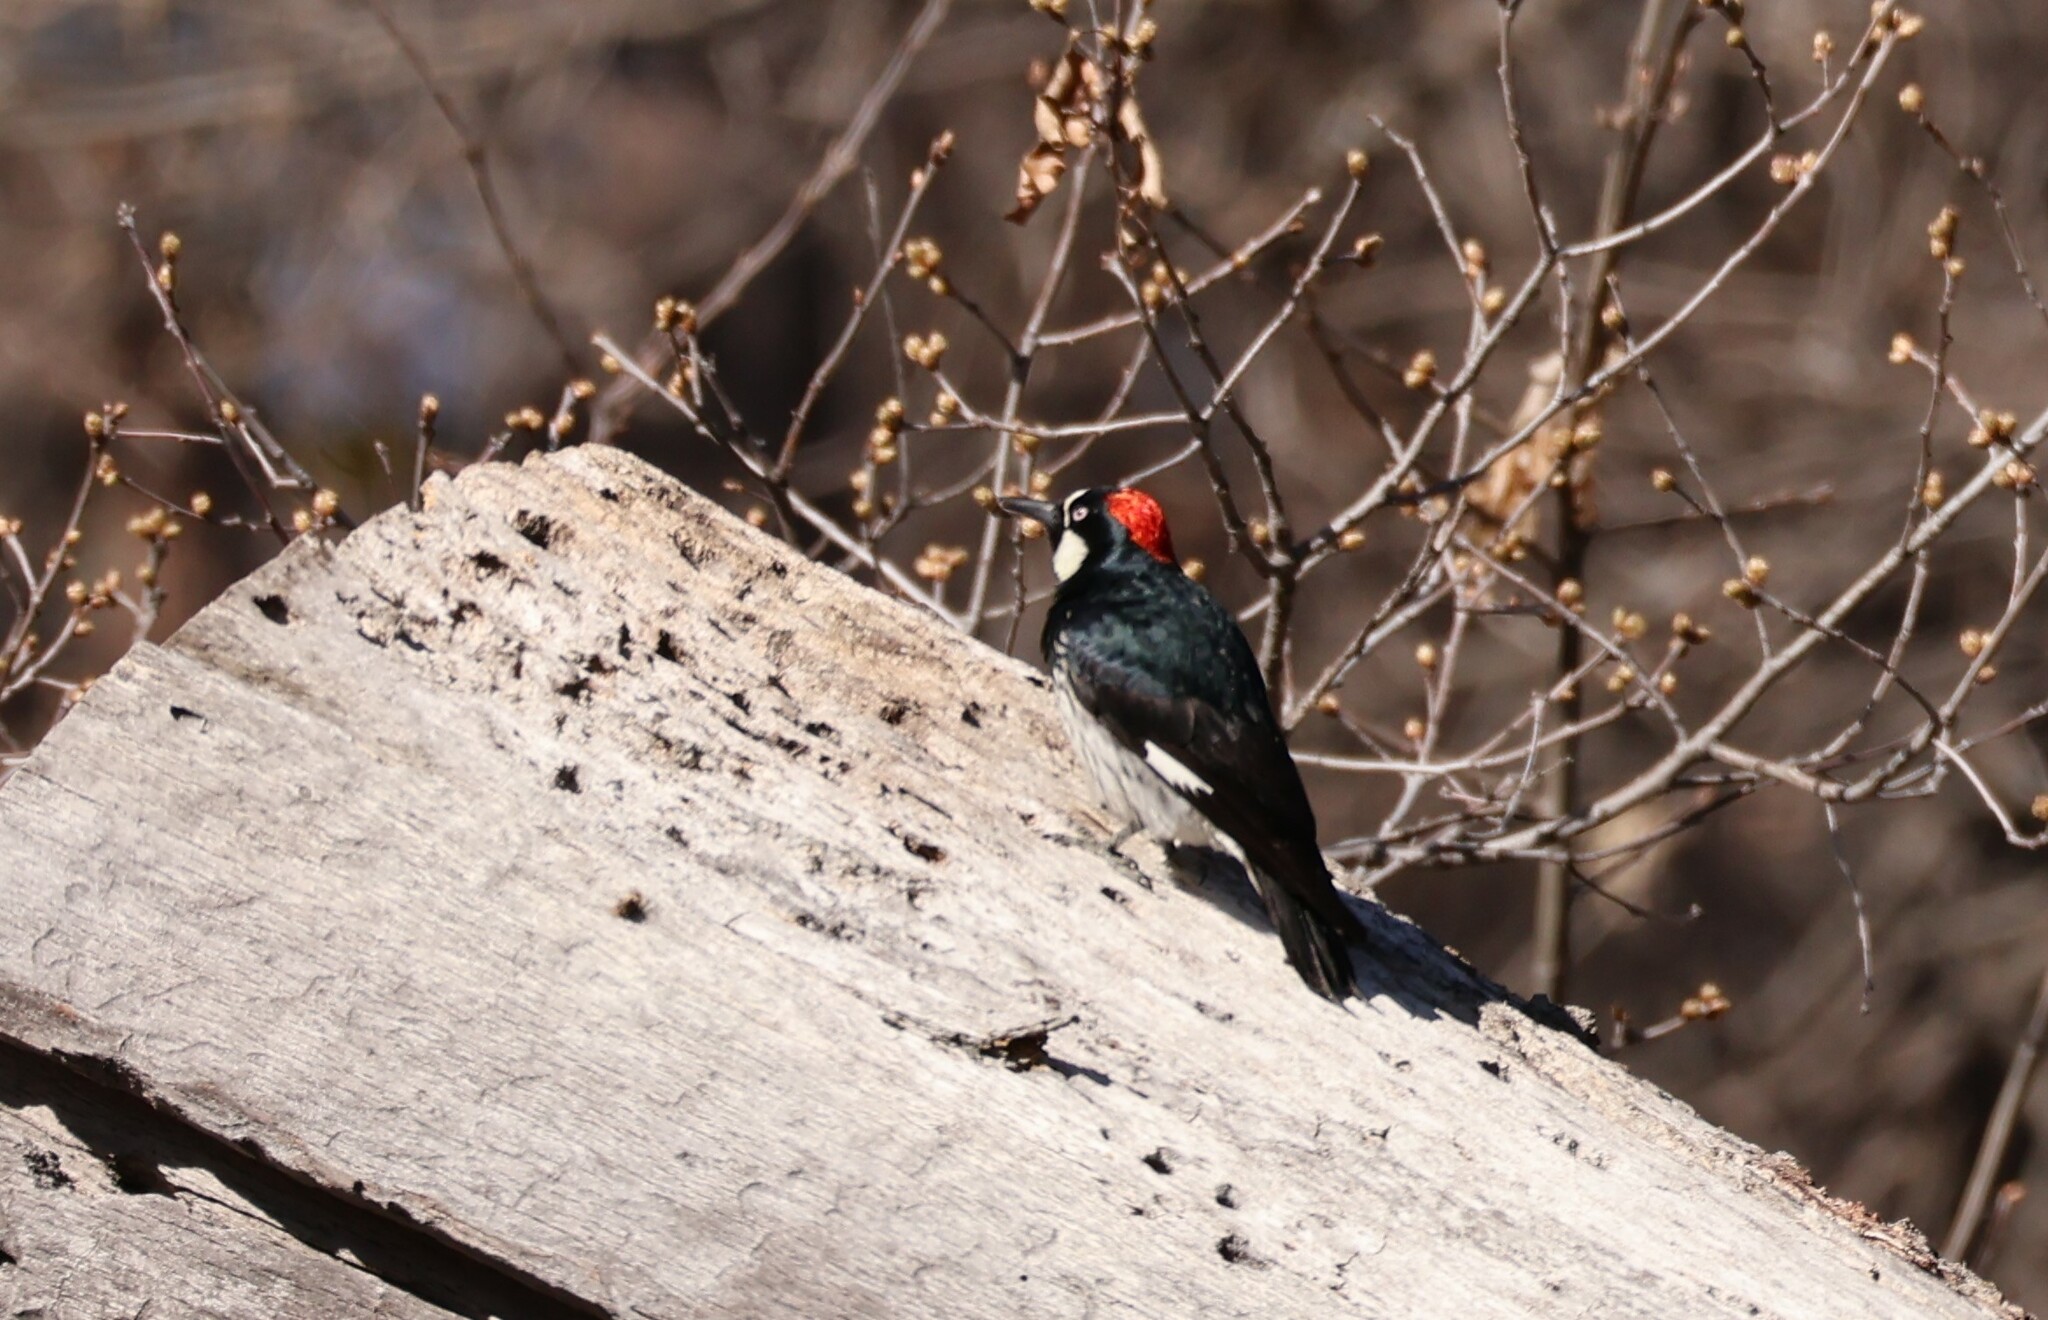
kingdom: Animalia
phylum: Chordata
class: Aves
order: Piciformes
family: Picidae
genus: Melanerpes
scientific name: Melanerpes formicivorus
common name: Acorn woodpecker
